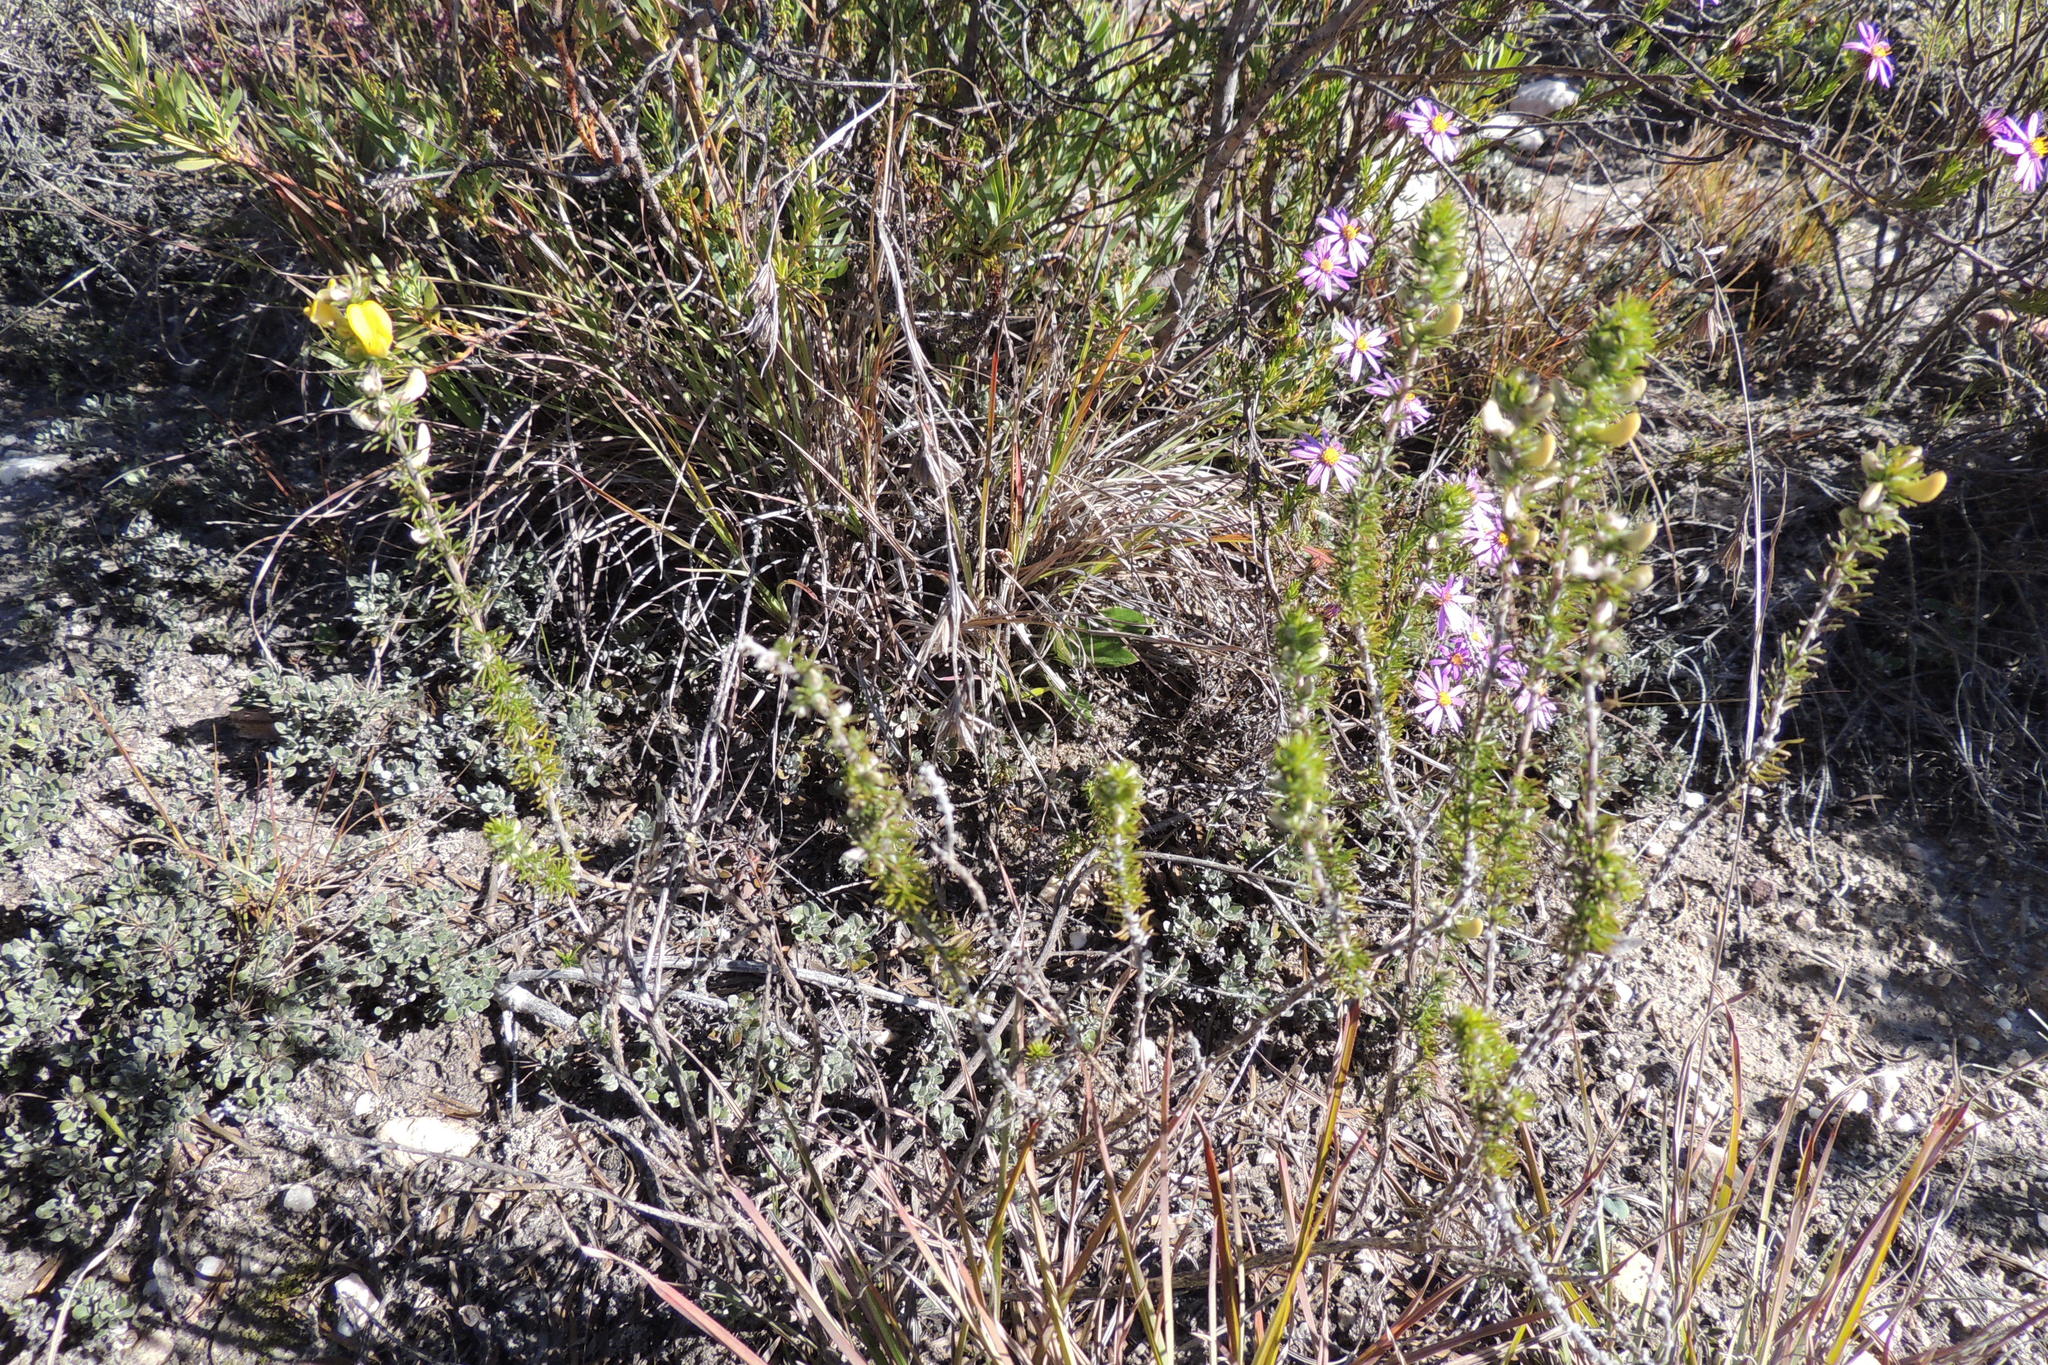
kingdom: Plantae
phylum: Tracheophyta
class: Magnoliopsida
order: Fabales
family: Fabaceae
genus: Aspalathus
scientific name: Aspalathus laricifolia
